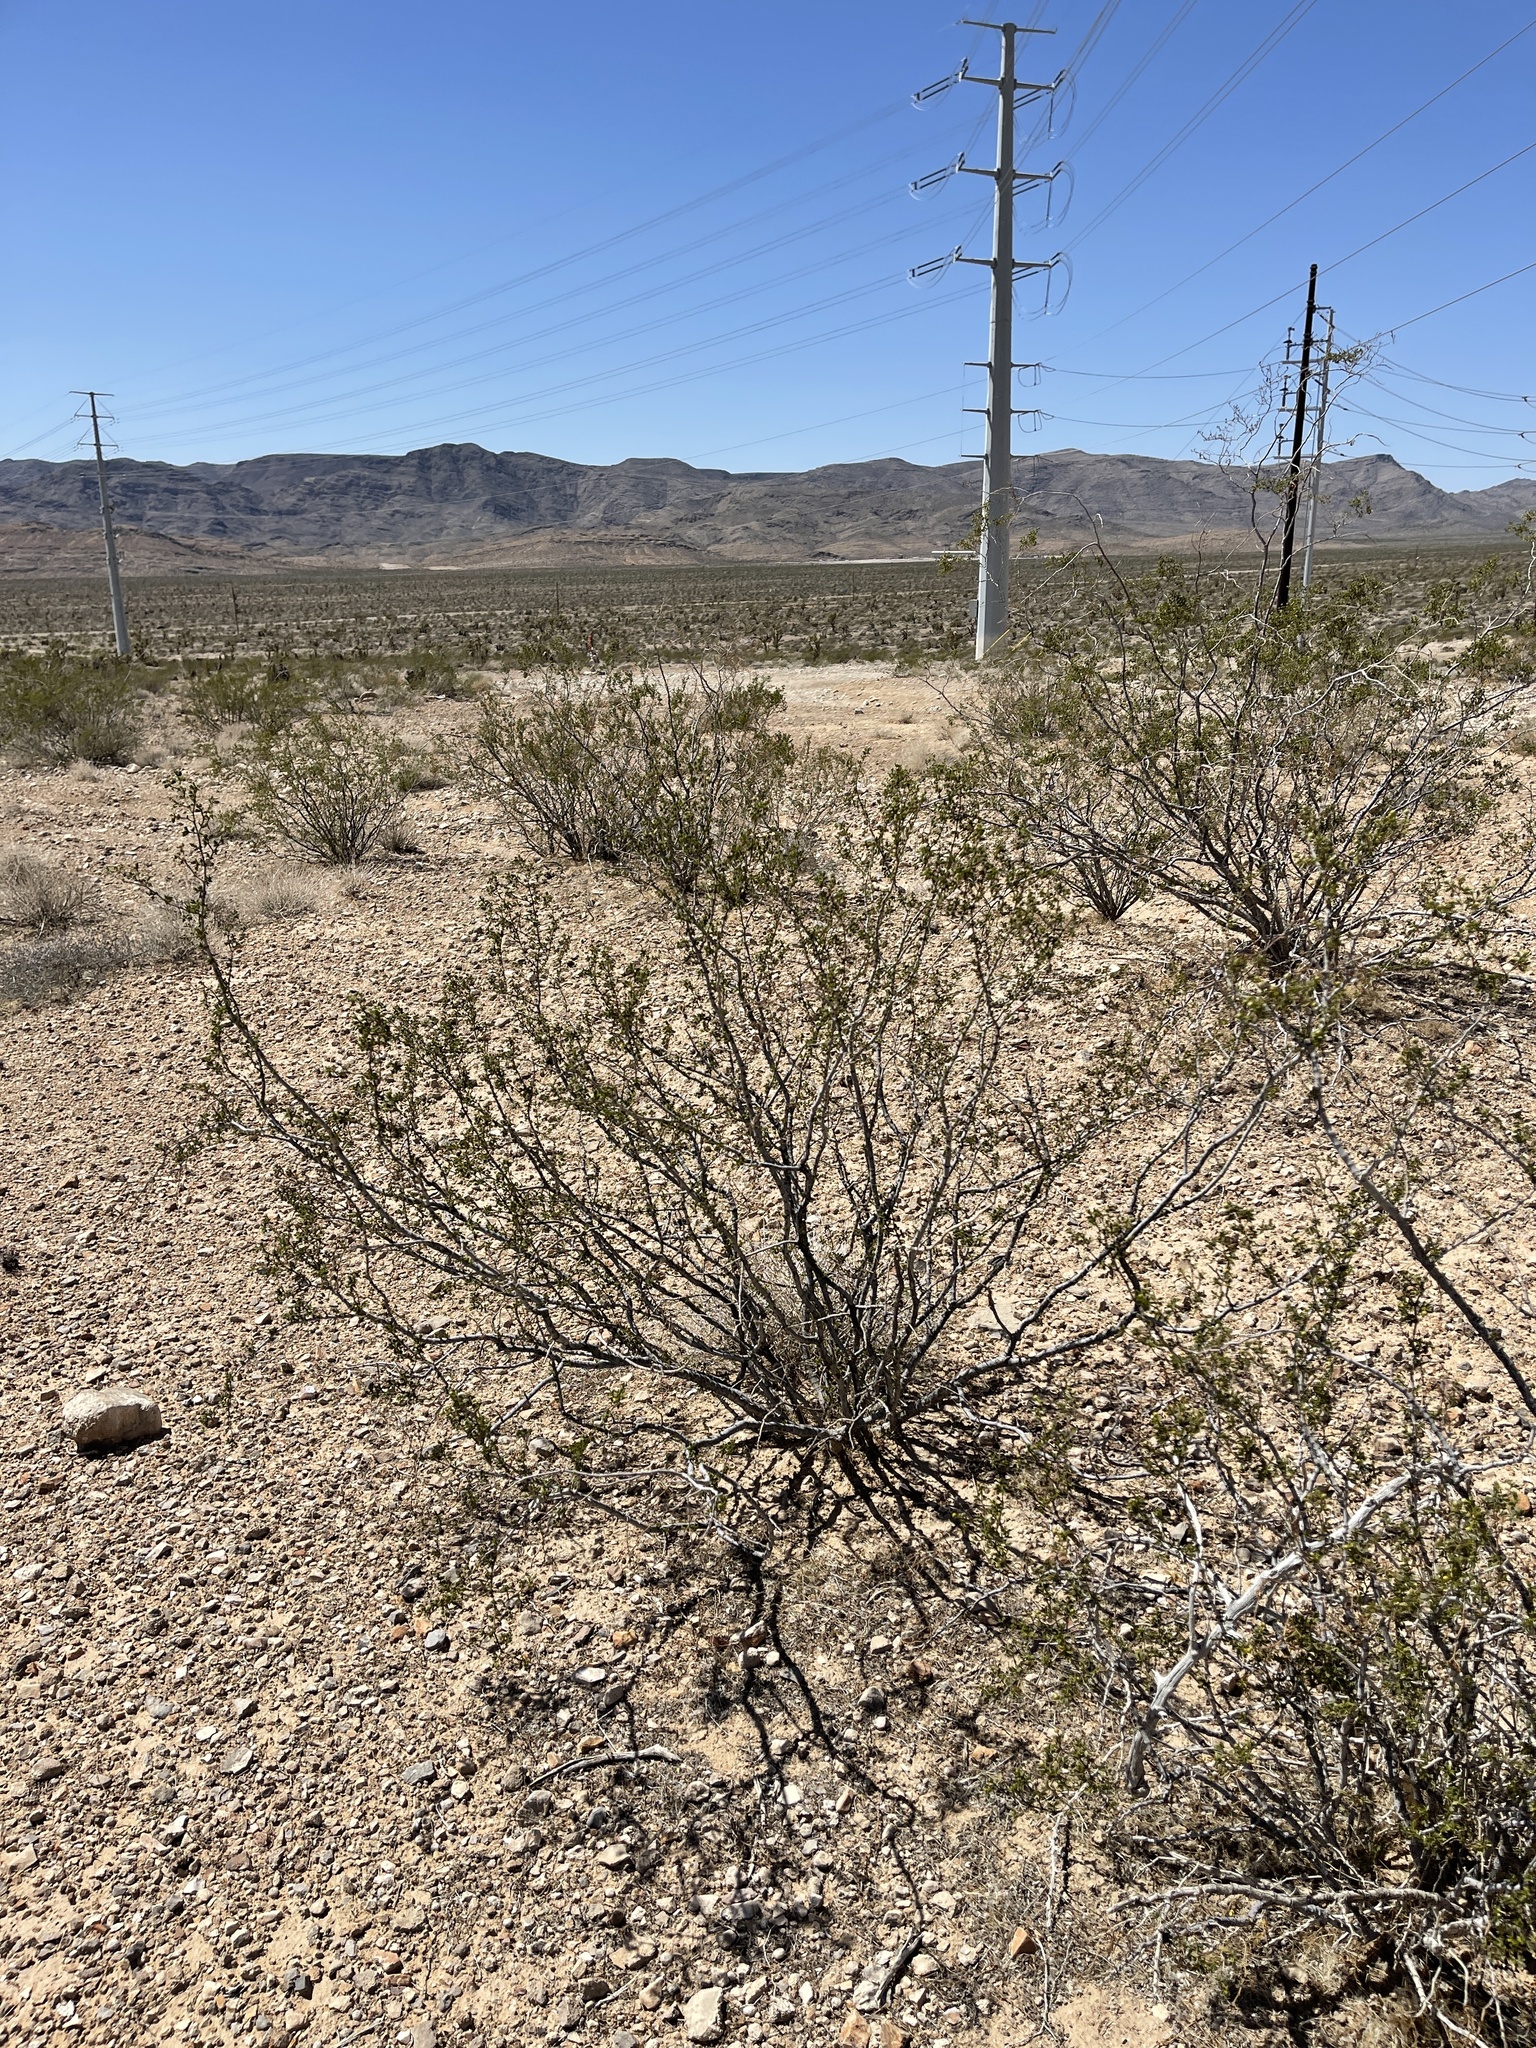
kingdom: Plantae
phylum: Tracheophyta
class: Magnoliopsida
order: Zygophyllales
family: Zygophyllaceae
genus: Larrea
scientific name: Larrea tridentata
